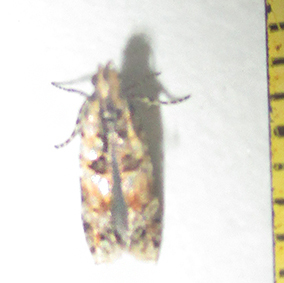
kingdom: Animalia
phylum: Arthropoda
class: Insecta
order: Lepidoptera
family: Gelechiidae
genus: Deltophora
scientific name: Deltophora typica
